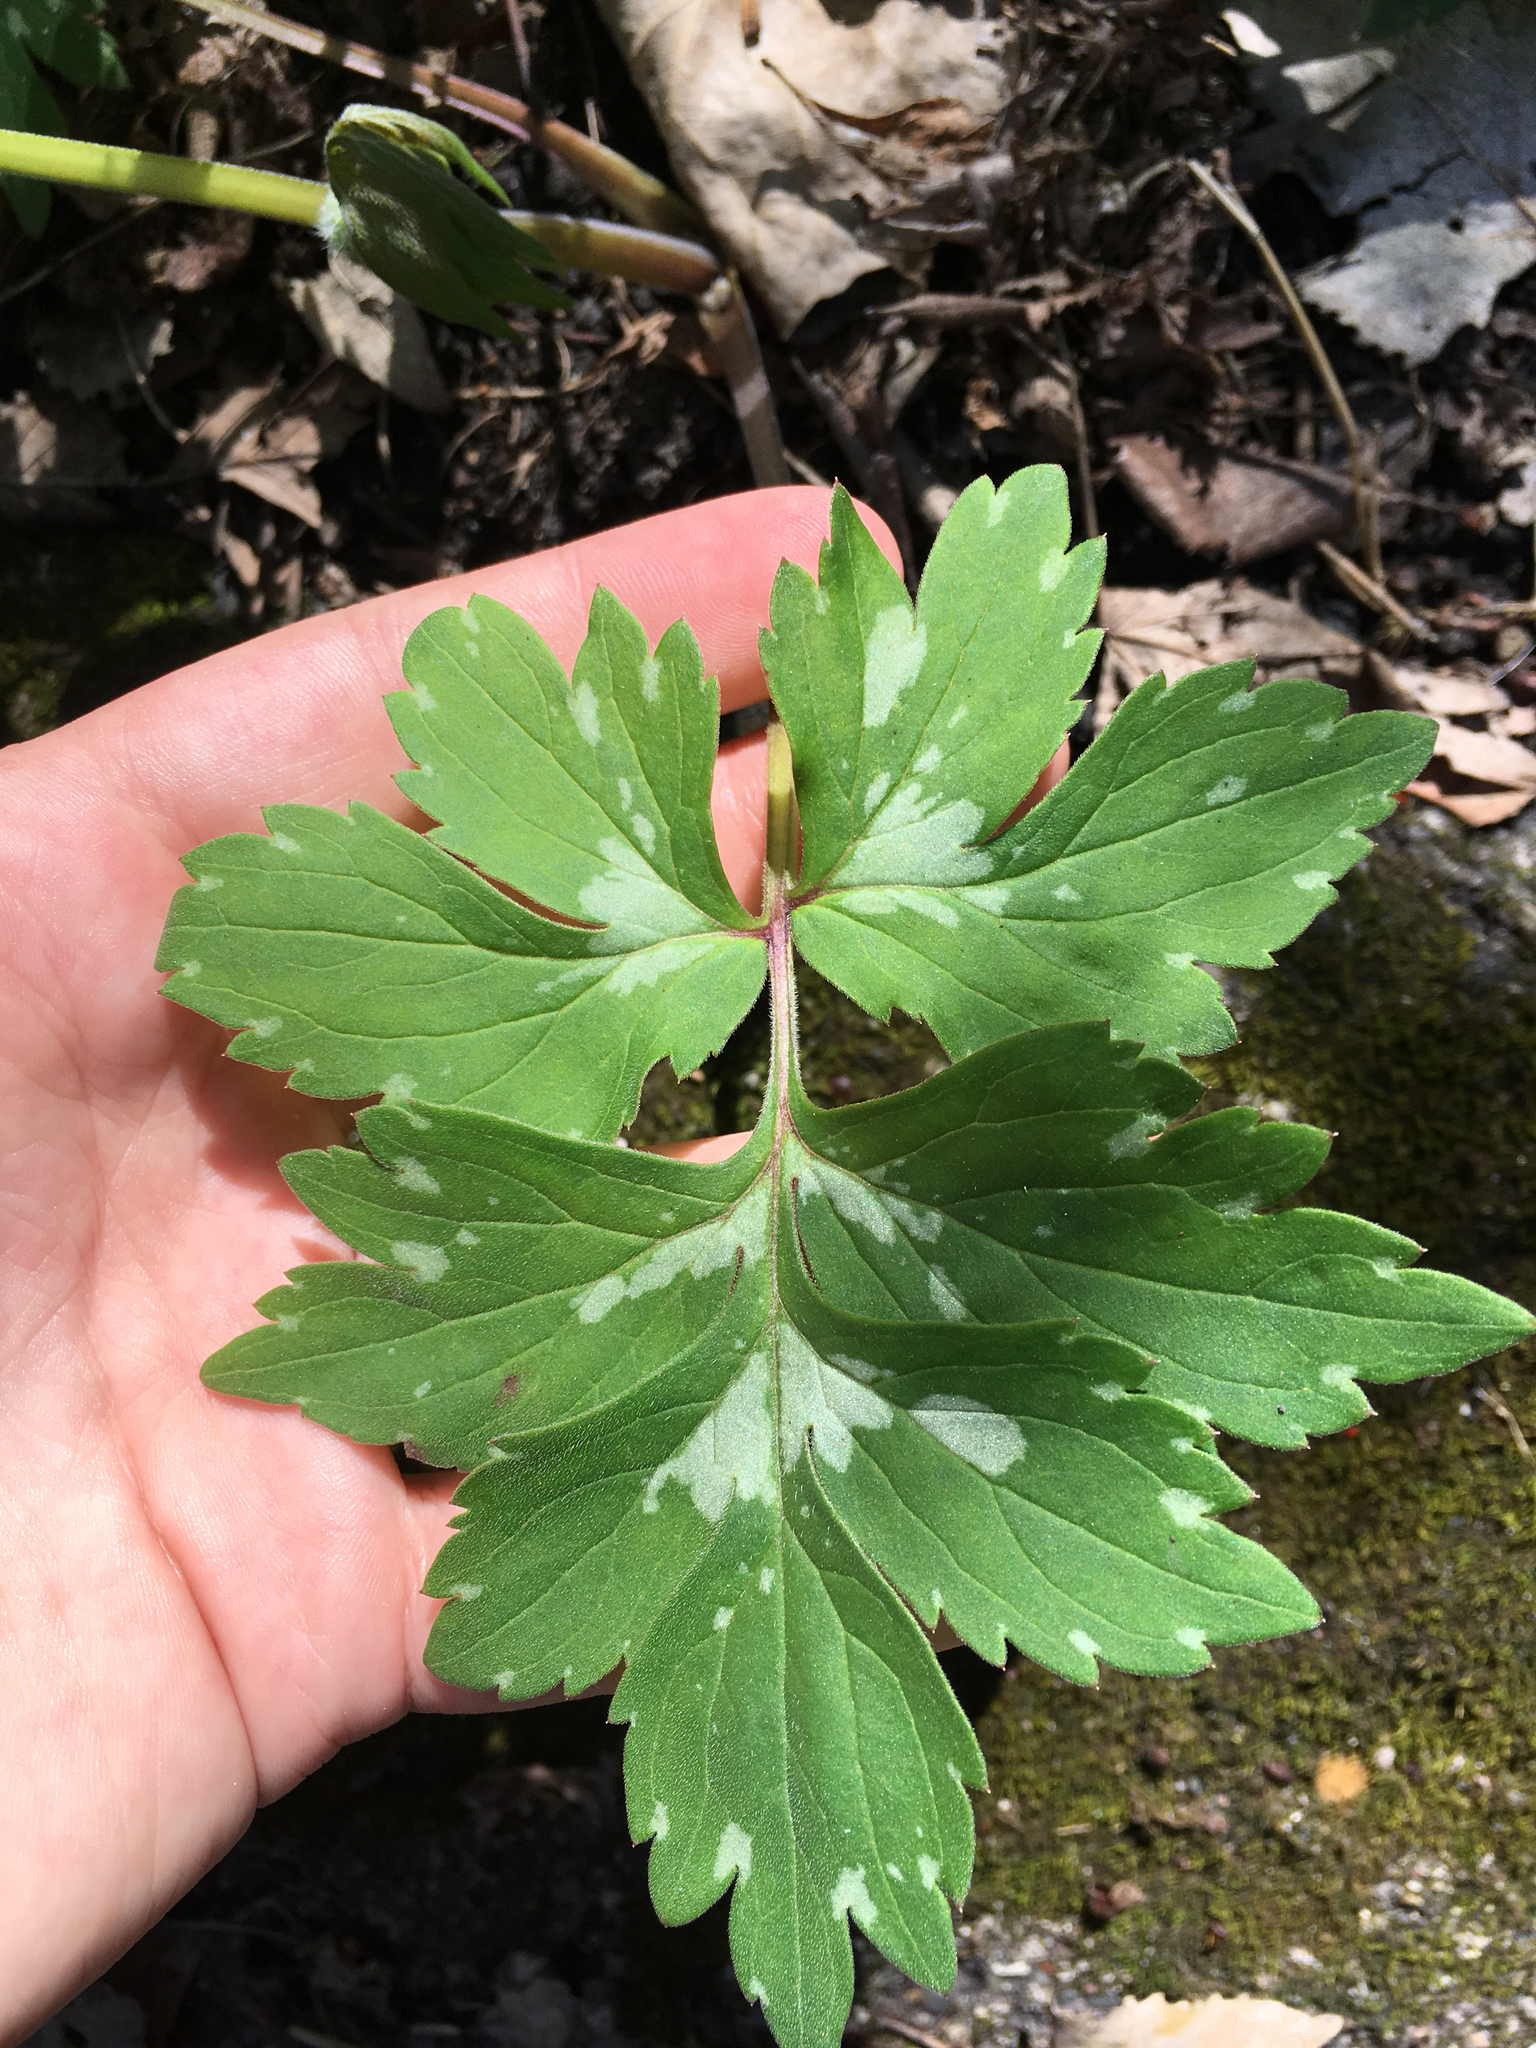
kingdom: Plantae
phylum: Tracheophyta
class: Magnoliopsida
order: Boraginales
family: Hydrophyllaceae
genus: Hydrophyllum
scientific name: Hydrophyllum virginianum
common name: Virginia waterleaf
